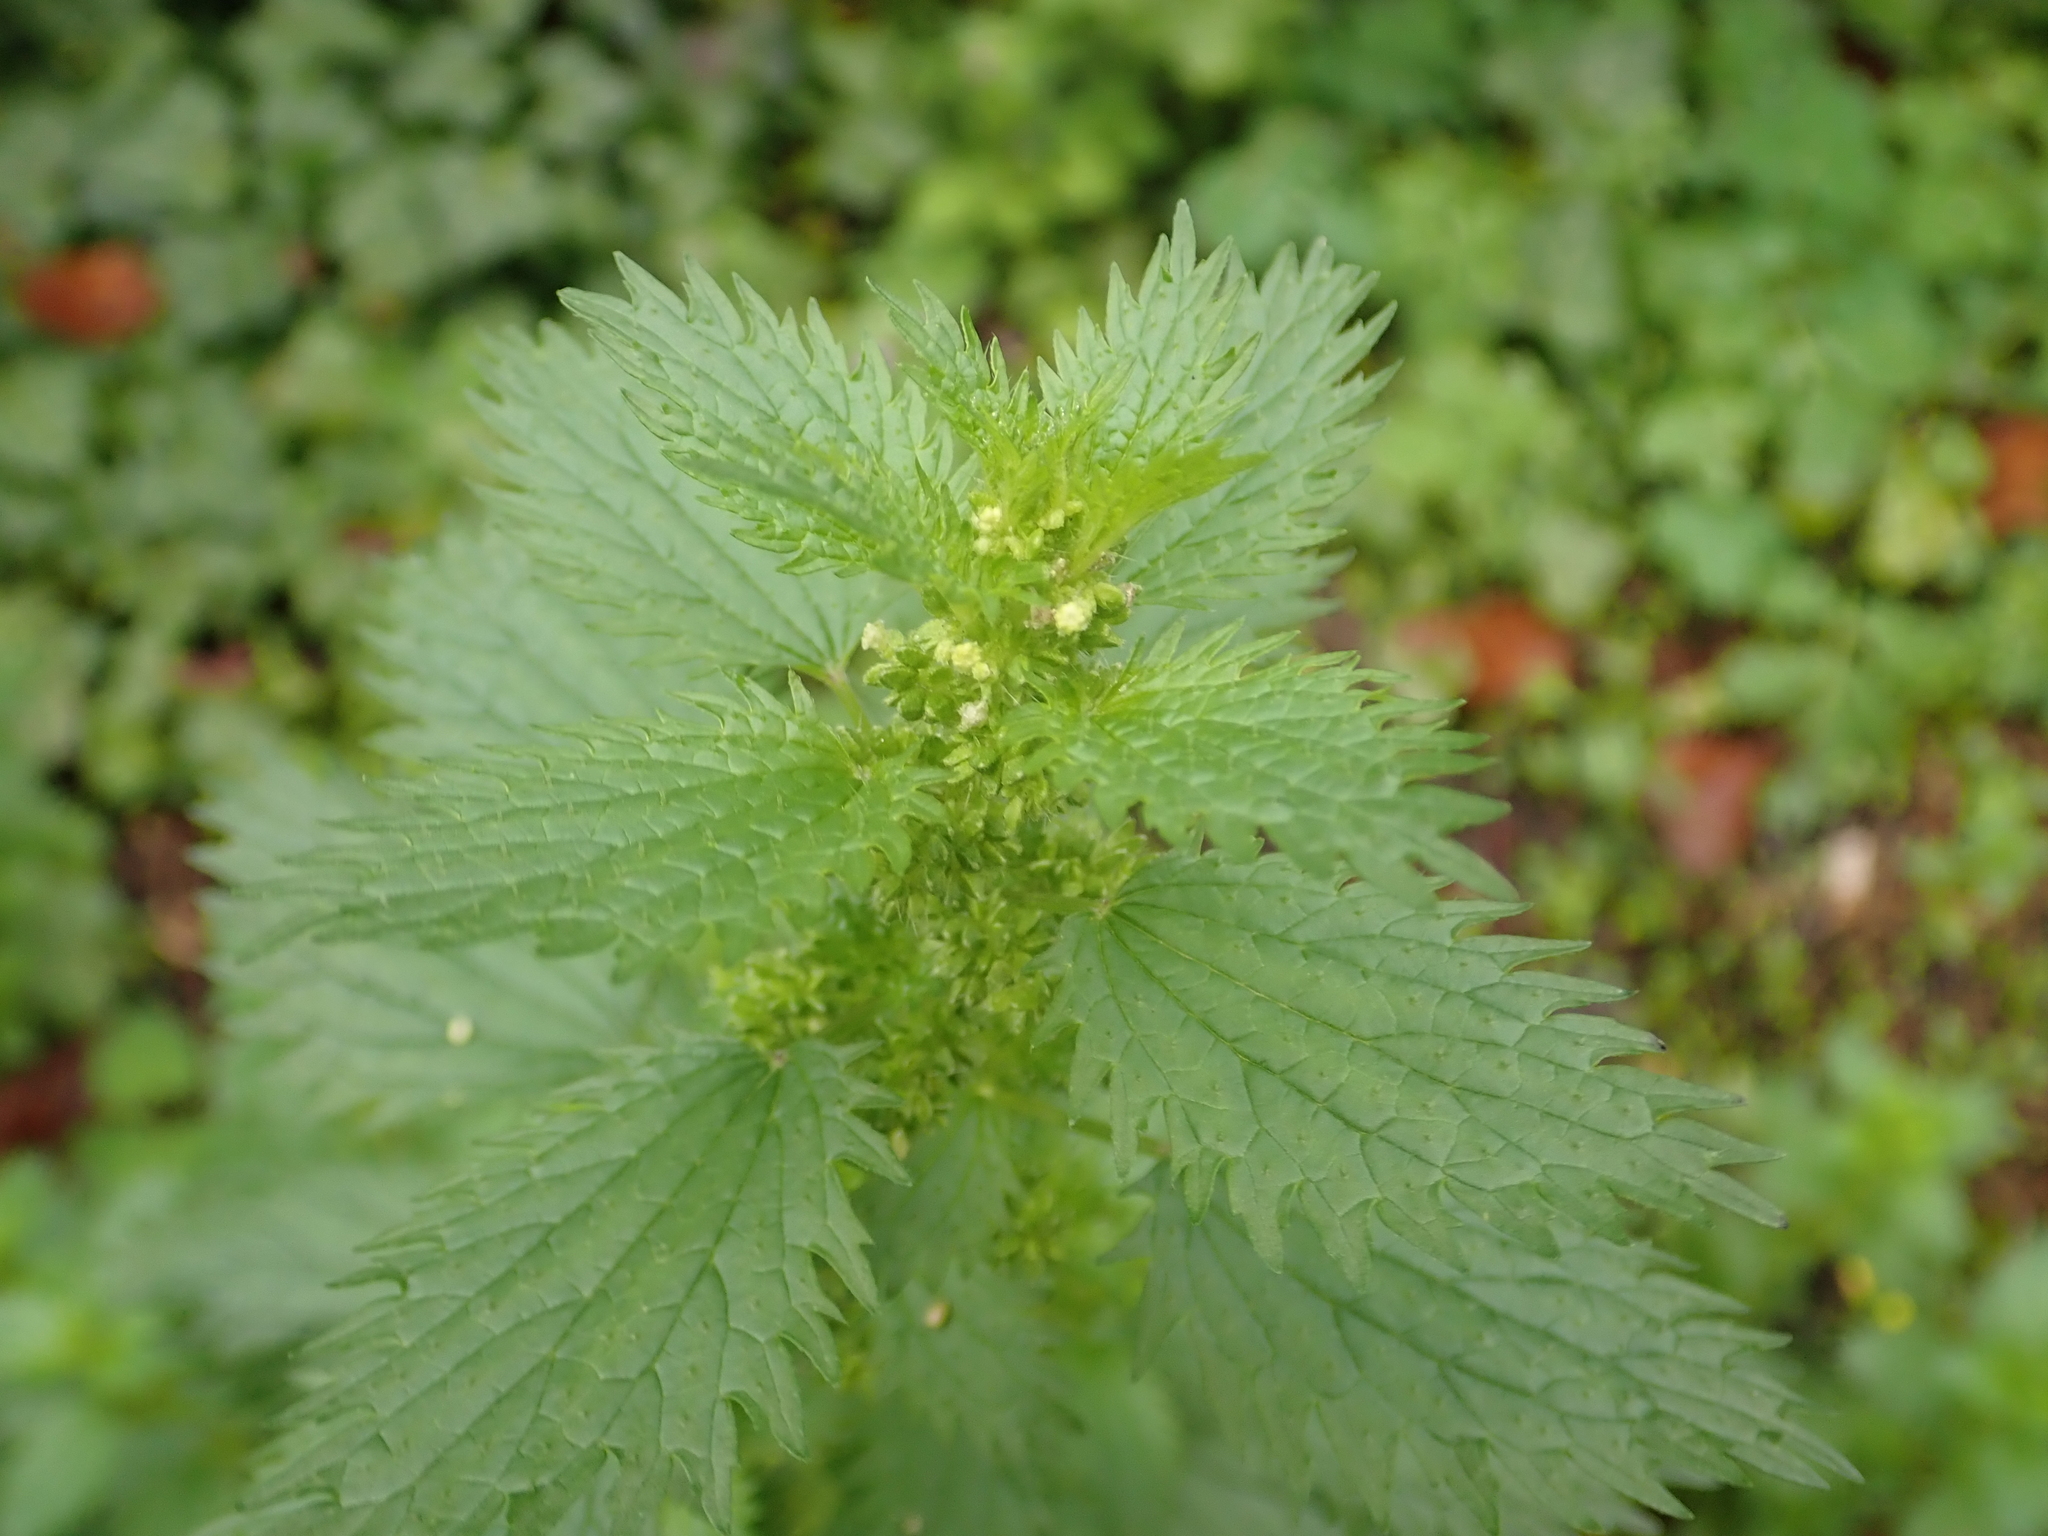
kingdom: Plantae
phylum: Tracheophyta
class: Magnoliopsida
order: Rosales
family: Urticaceae
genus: Urtica
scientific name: Urtica urens
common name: Dwarf nettle
